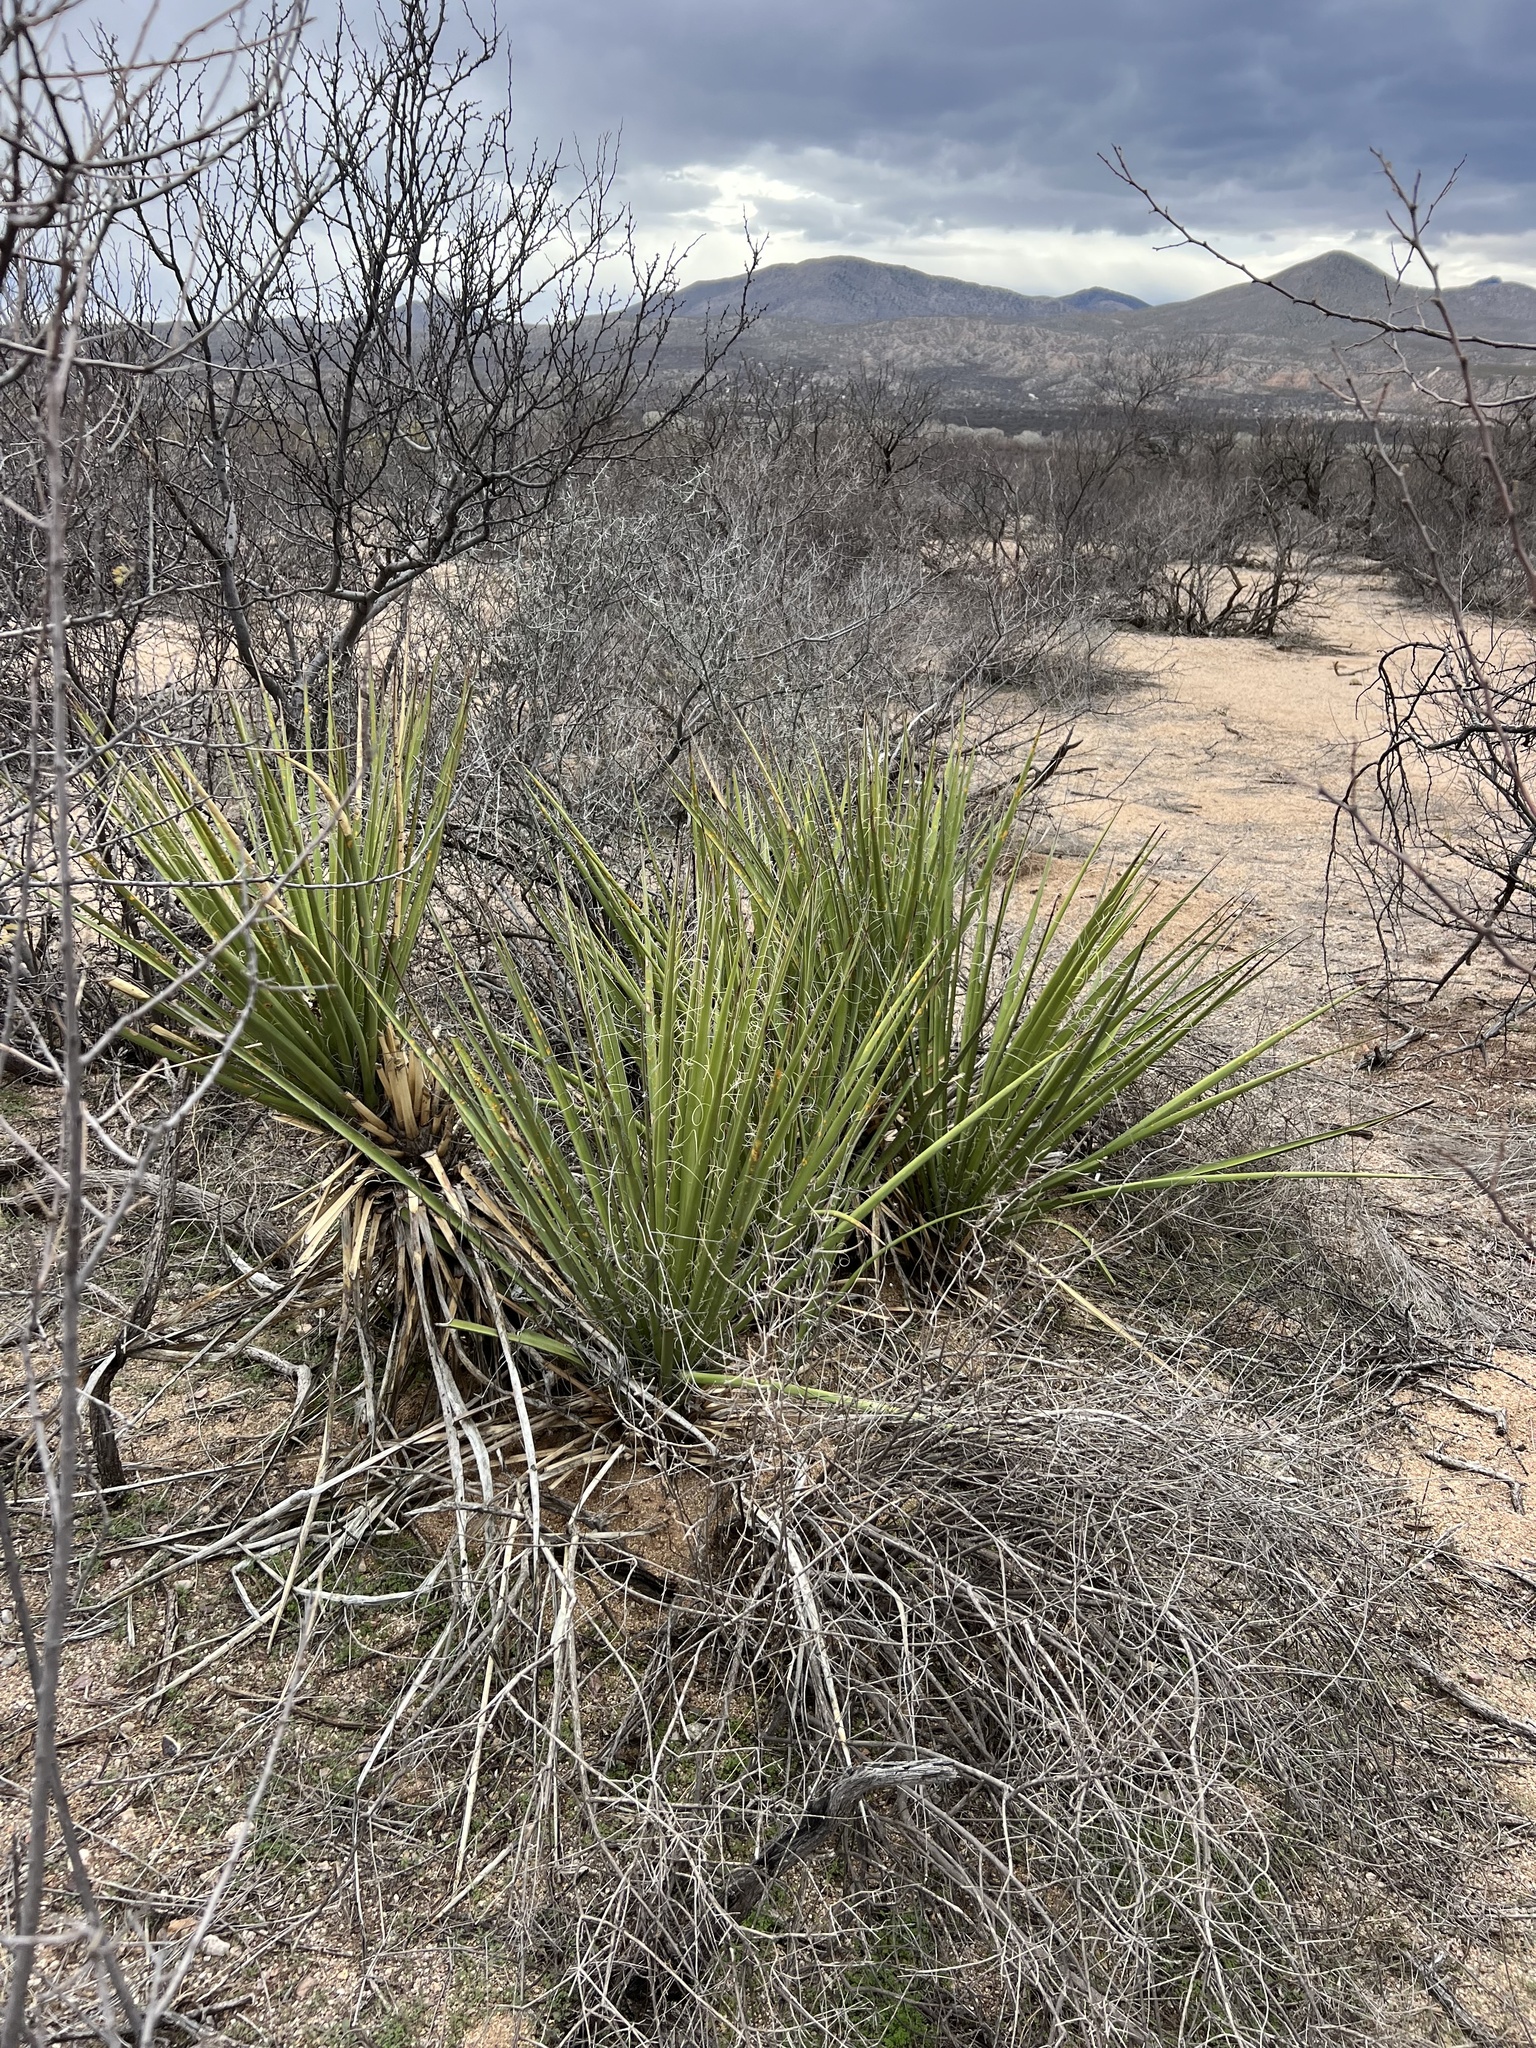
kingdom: Plantae
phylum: Tracheophyta
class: Liliopsida
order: Asparagales
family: Asparagaceae
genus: Yucca
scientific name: Yucca baccata
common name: Banana yucca
